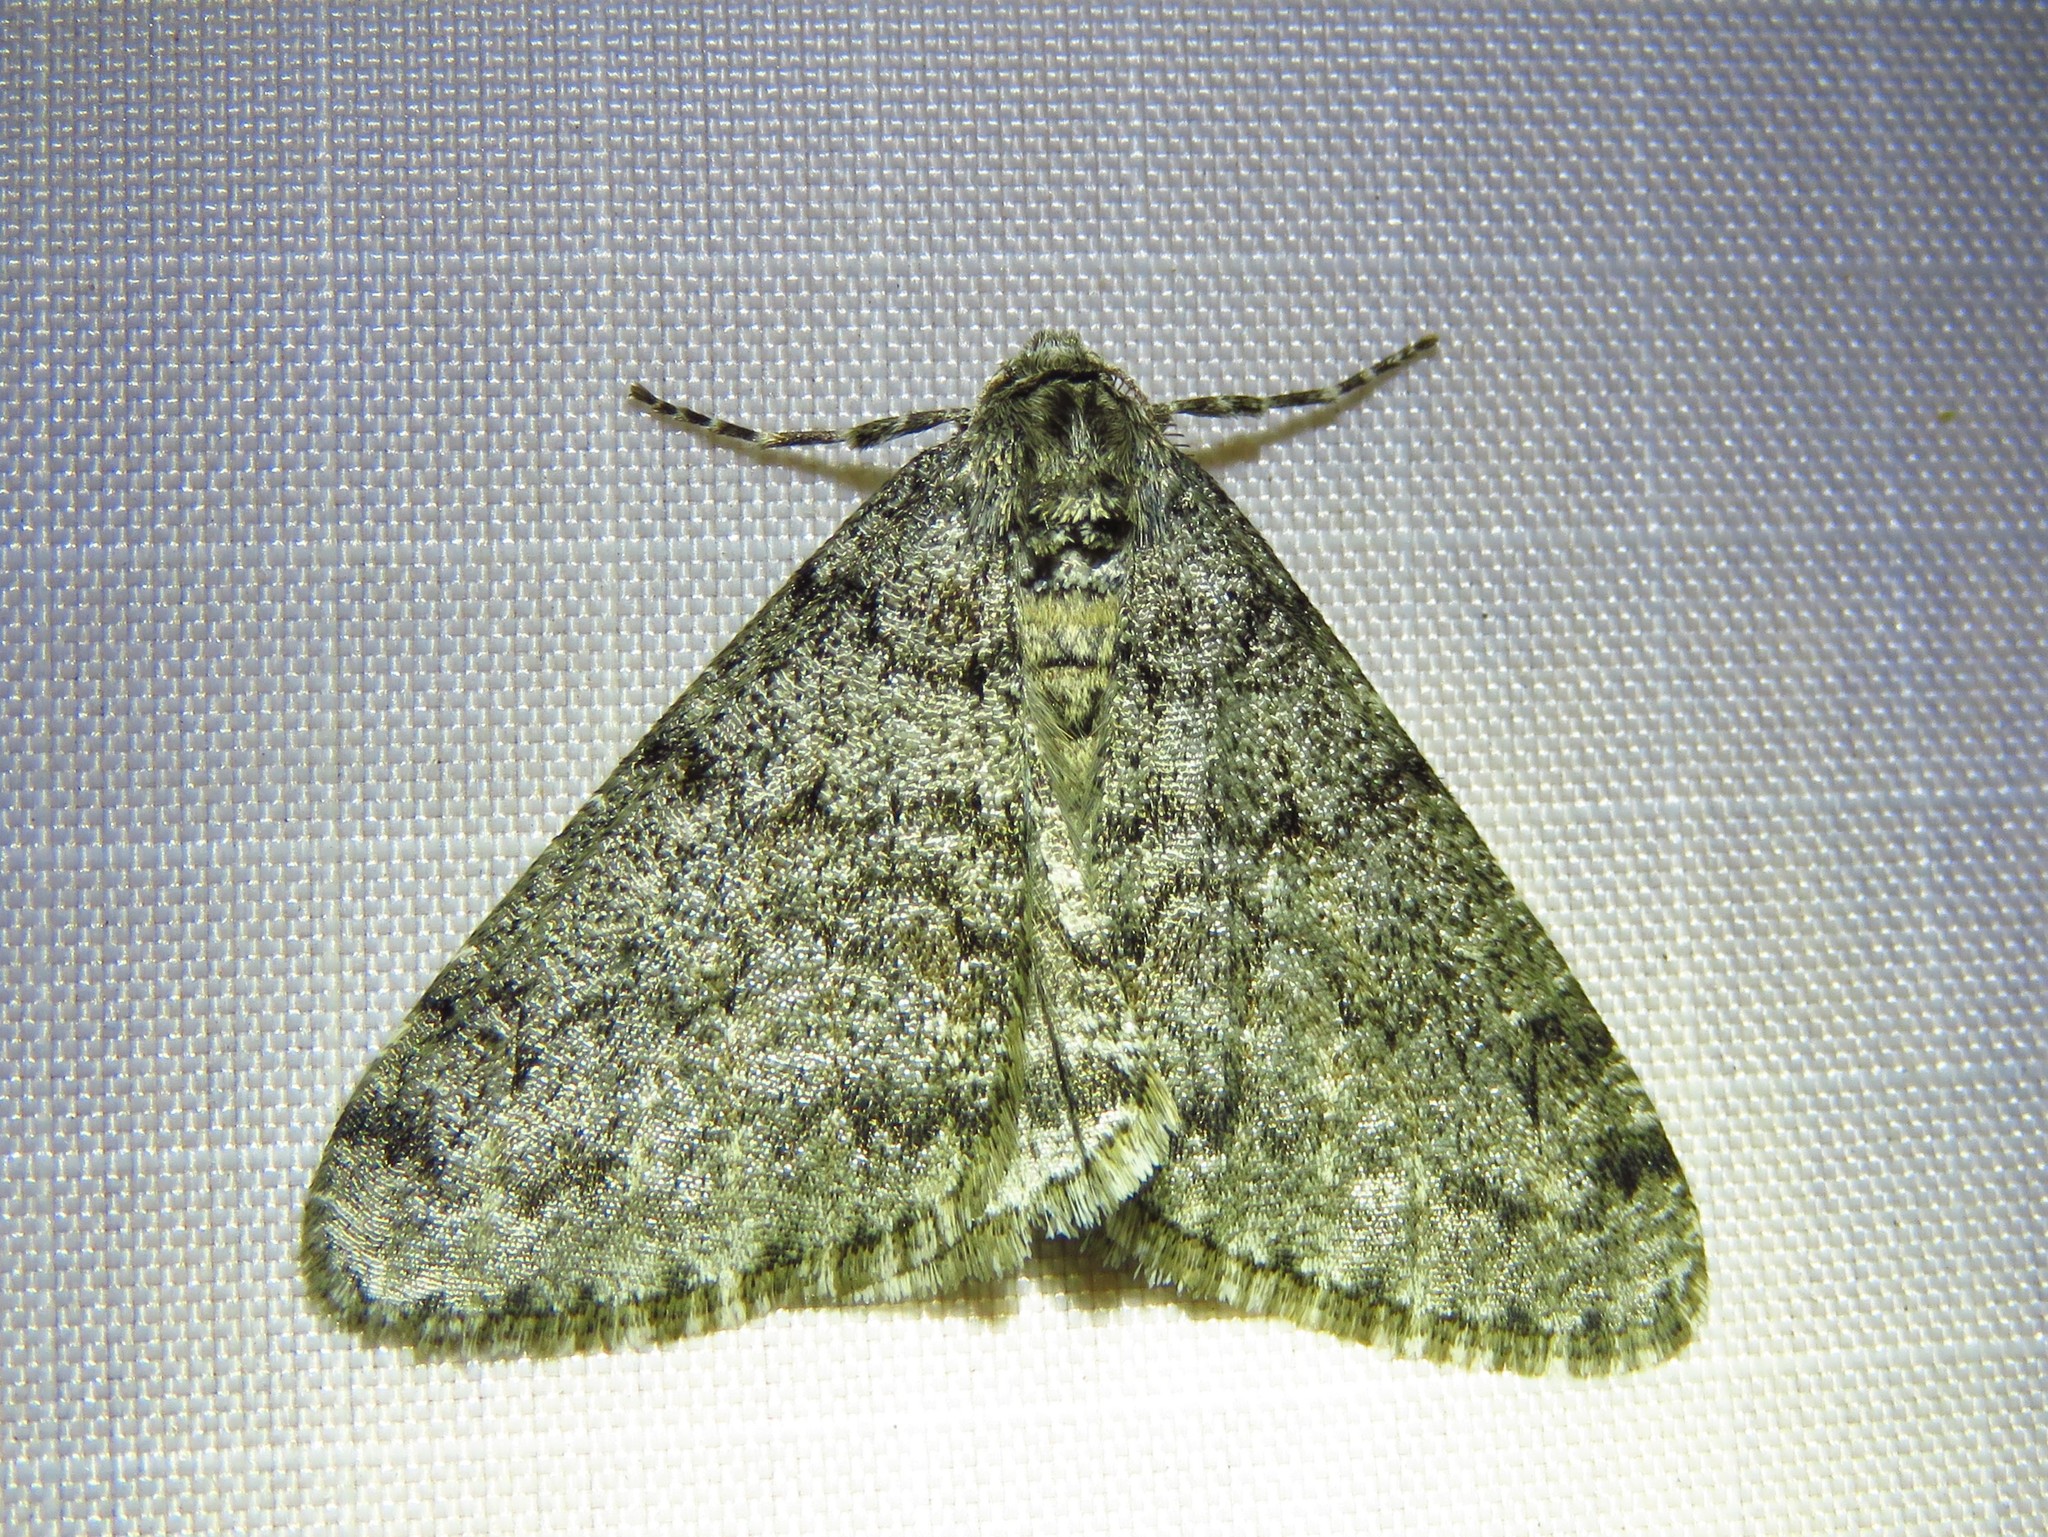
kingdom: Animalia
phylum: Arthropoda
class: Insecta
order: Lepidoptera
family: Geometridae
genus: Phigalia
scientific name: Phigalia denticulata
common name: Toothed phigalia
